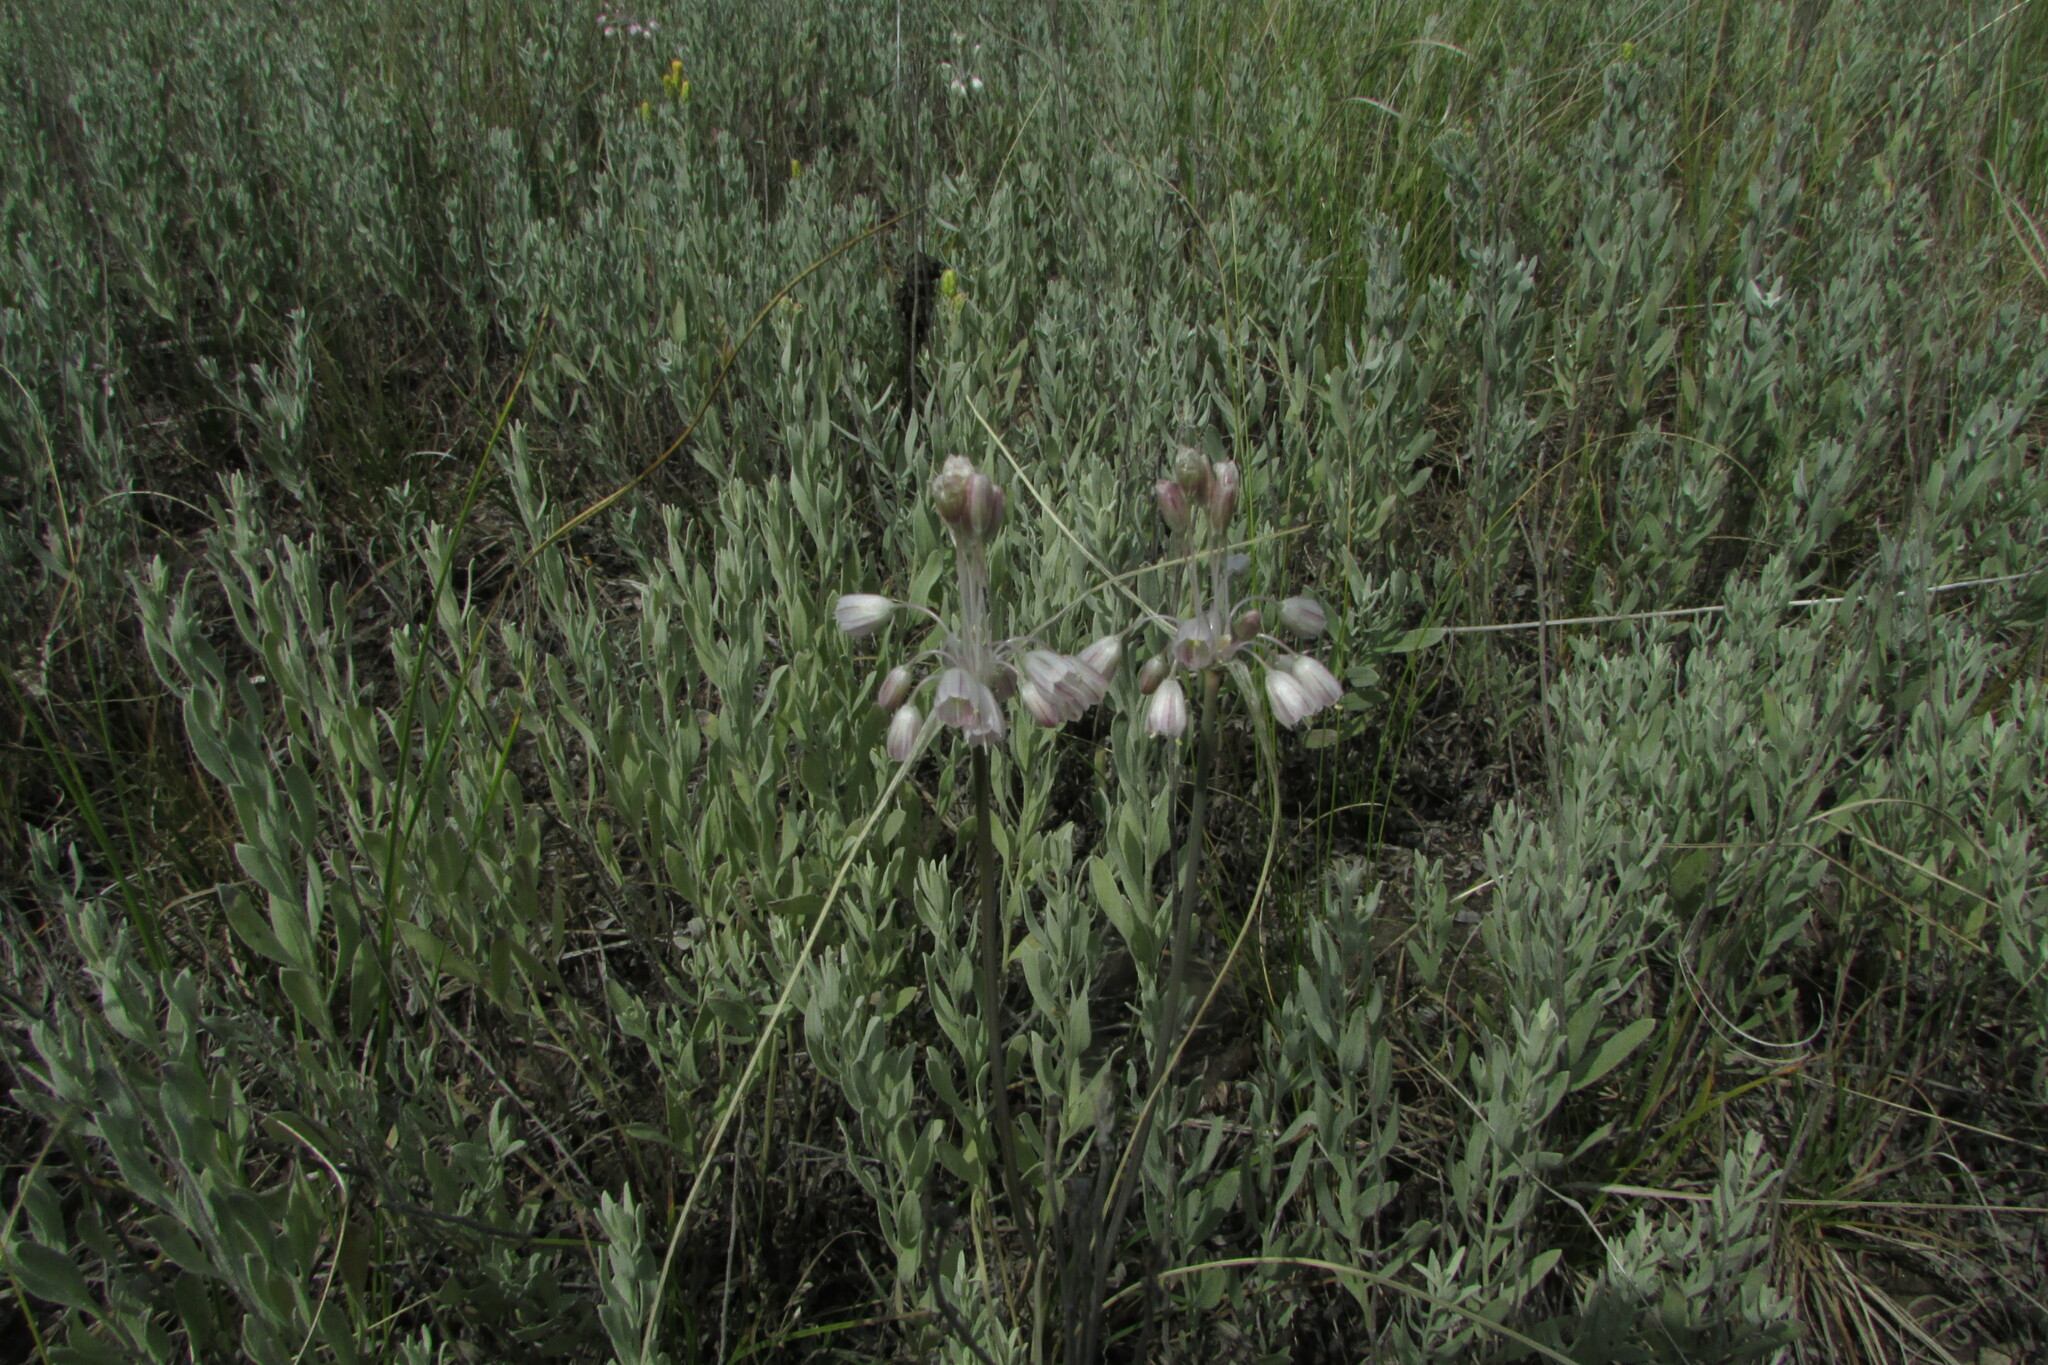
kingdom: Plantae
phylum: Tracheophyta
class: Liliopsida
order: Asparagales
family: Amaryllidaceae
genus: Allium
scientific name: Allium paniculatum
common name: Pale garlic
